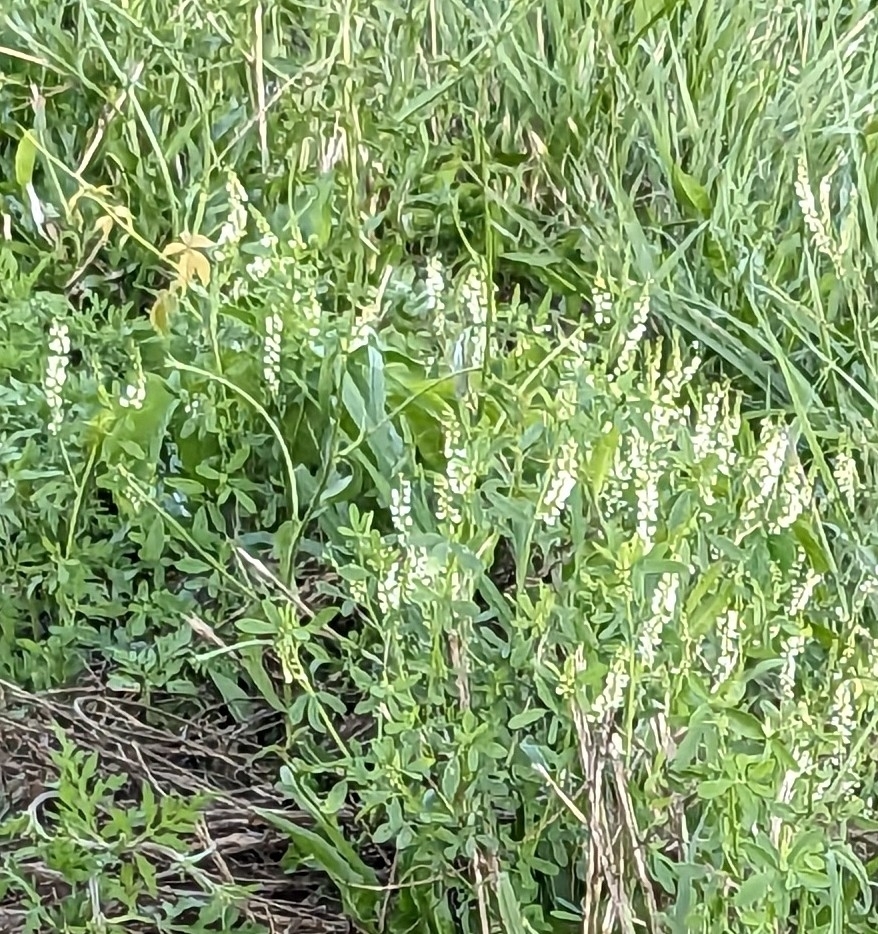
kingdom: Plantae
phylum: Tracheophyta
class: Magnoliopsida
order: Fabales
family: Fabaceae
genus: Melilotus
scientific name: Melilotus albus
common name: White melilot
